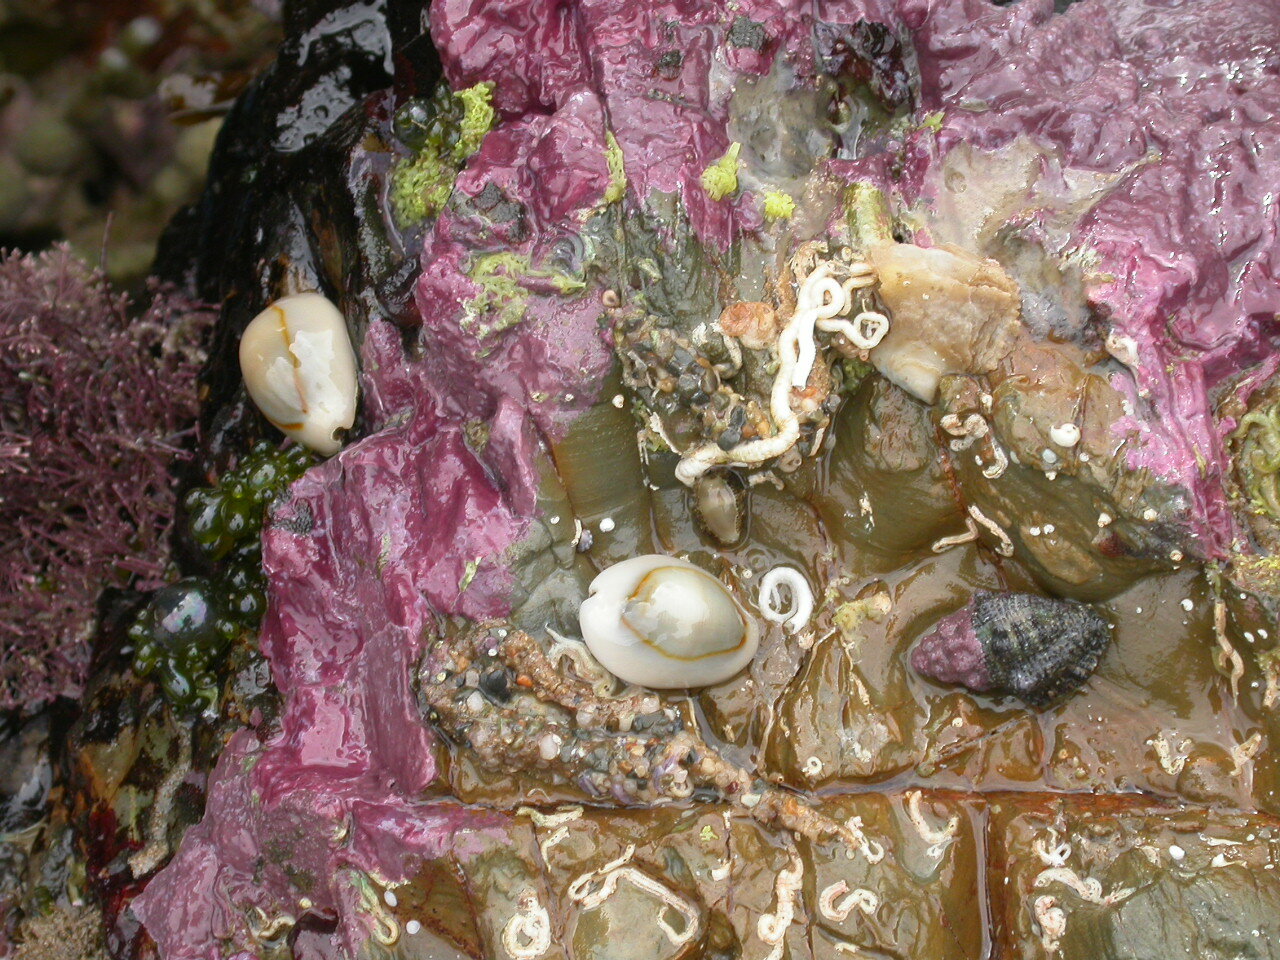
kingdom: Animalia
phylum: Mollusca
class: Gastropoda
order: Littorinimorpha
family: Cypraeidae
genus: Monetaria
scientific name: Monetaria annulus
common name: Ring cowrie
